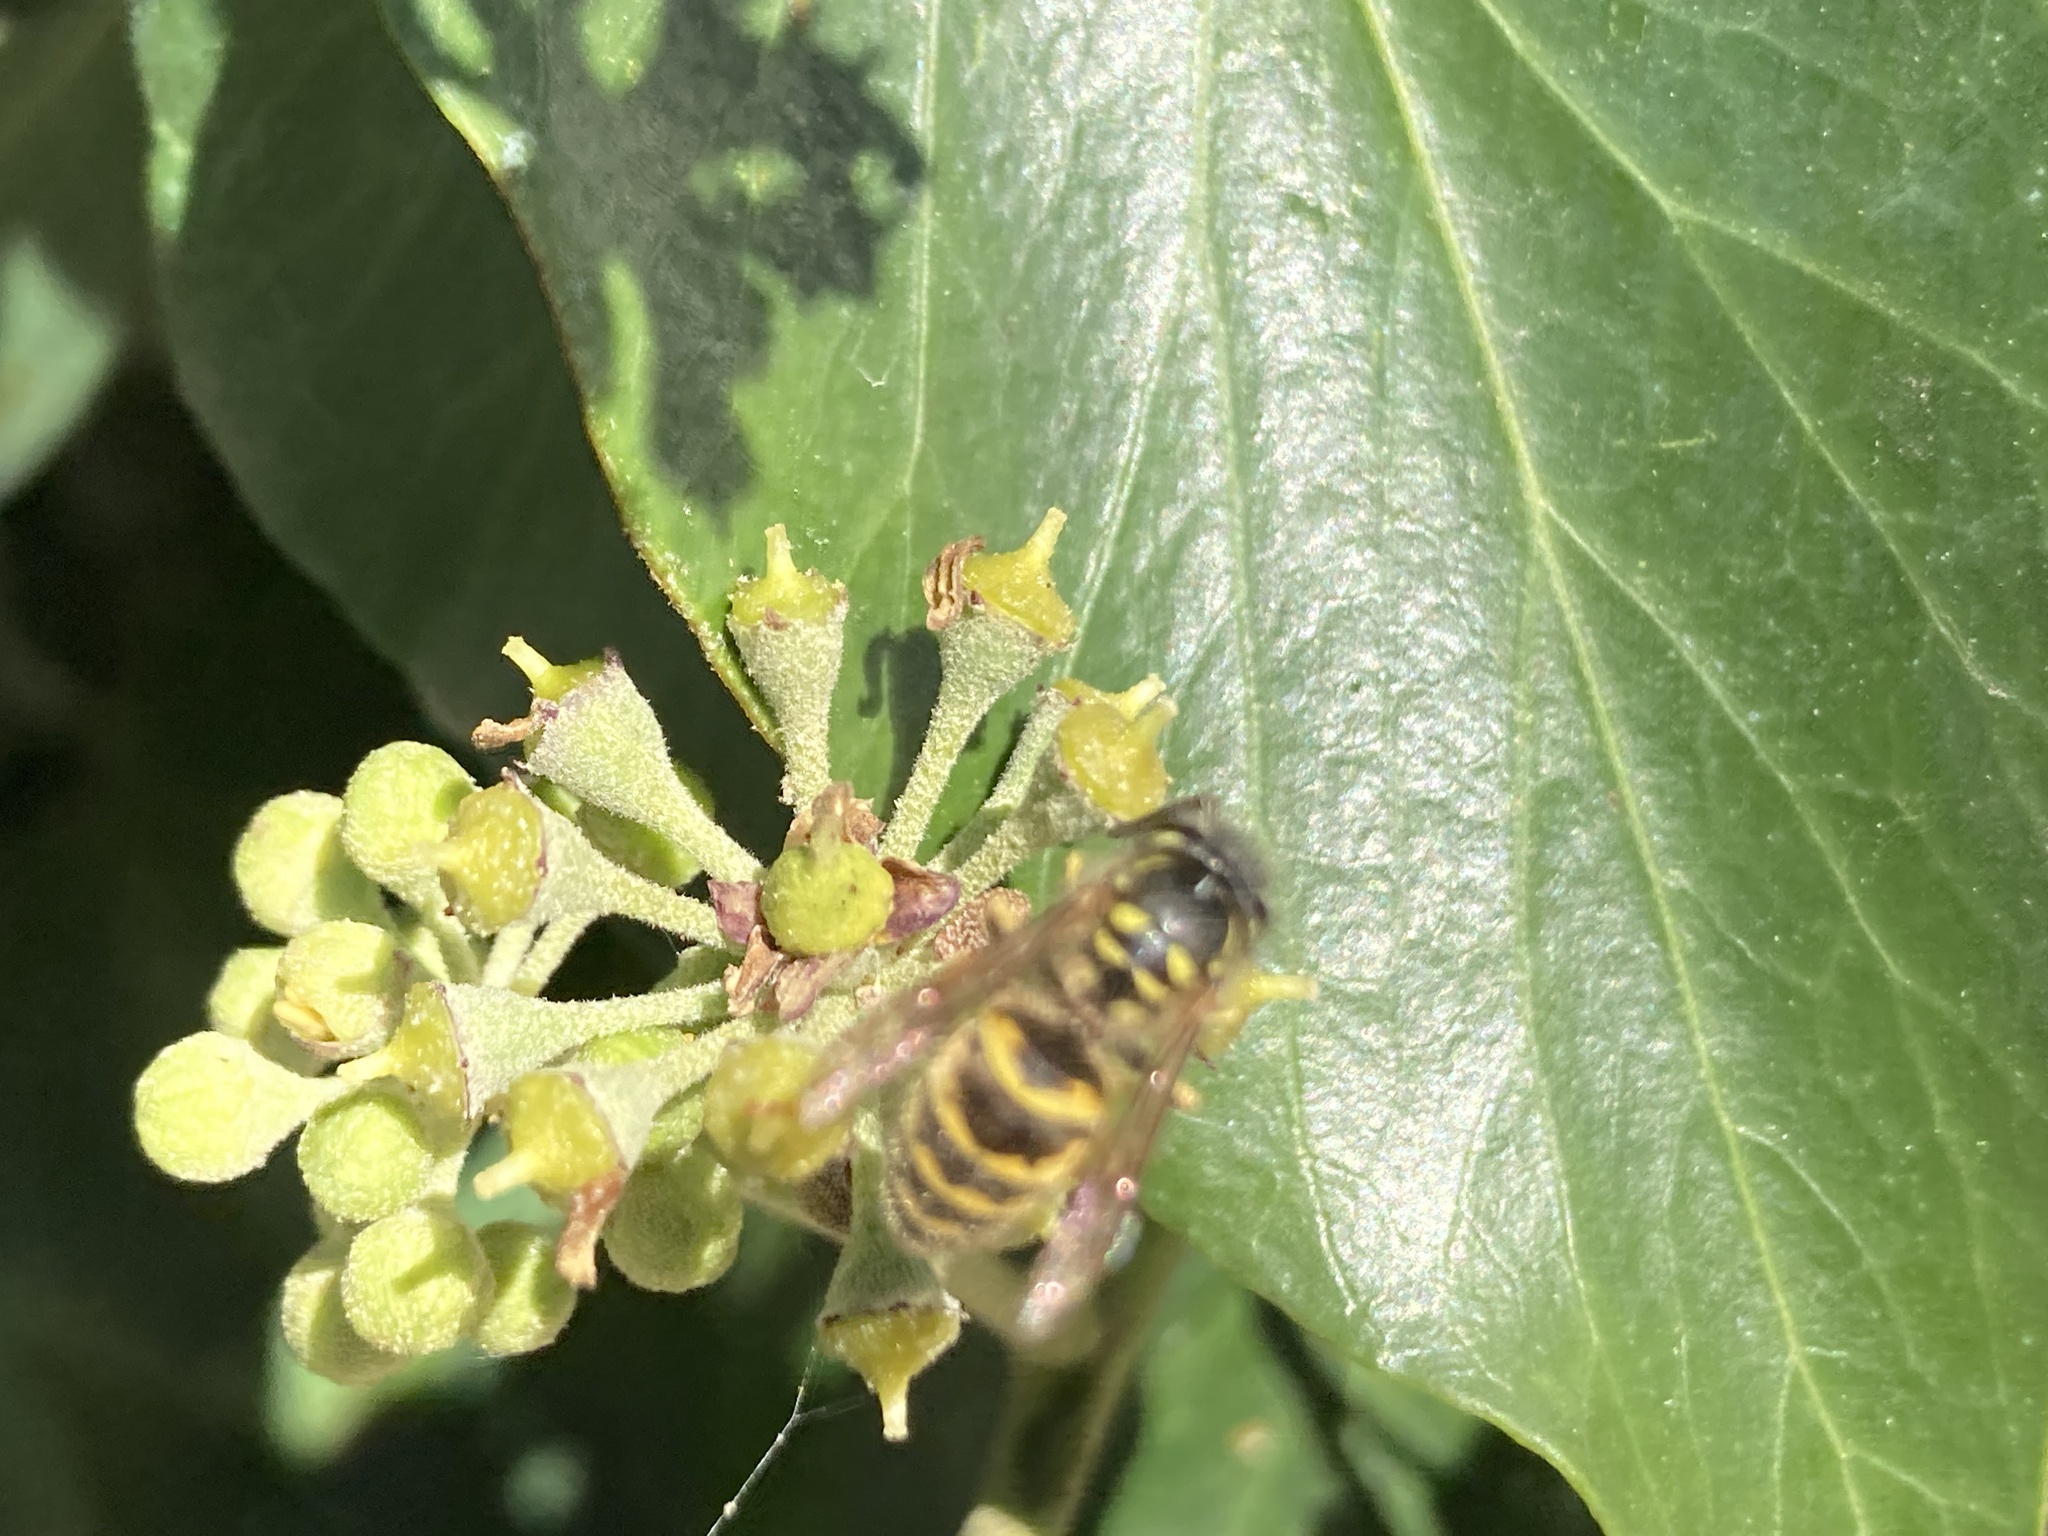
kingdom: Animalia
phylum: Arthropoda
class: Insecta
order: Hymenoptera
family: Vespidae
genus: Vespula
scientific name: Vespula vulgaris
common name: Common wasp
